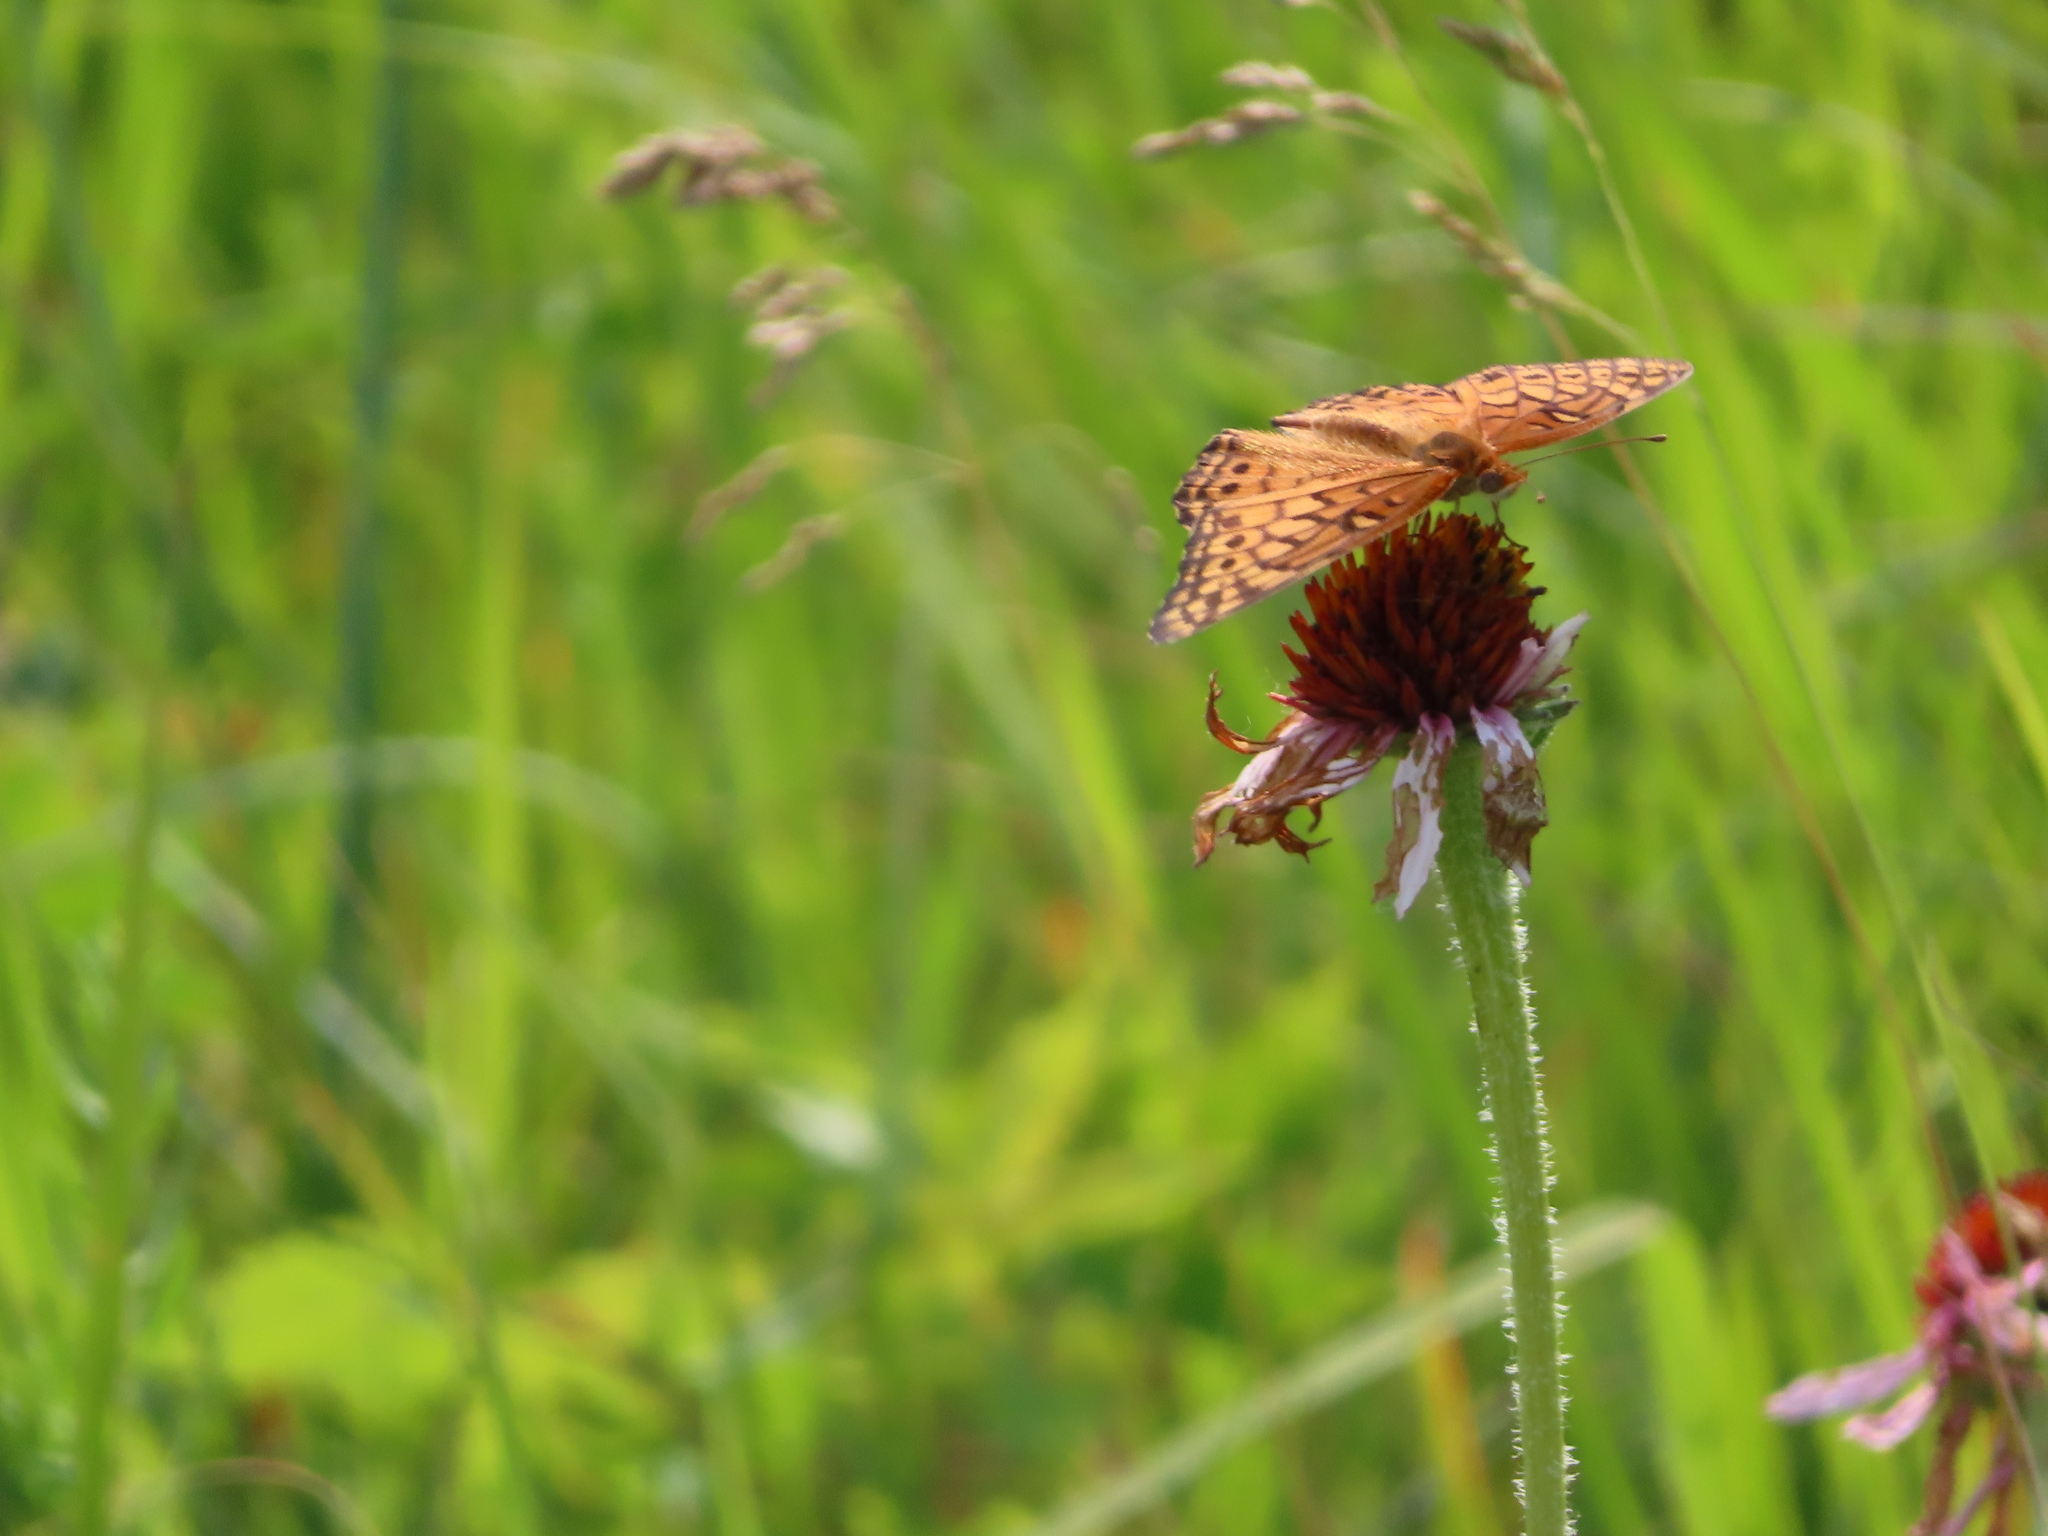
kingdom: Animalia
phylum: Arthropoda
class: Insecta
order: Lepidoptera
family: Nymphalidae
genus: Euptoieta
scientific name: Euptoieta claudia
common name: Variegated fritillary
